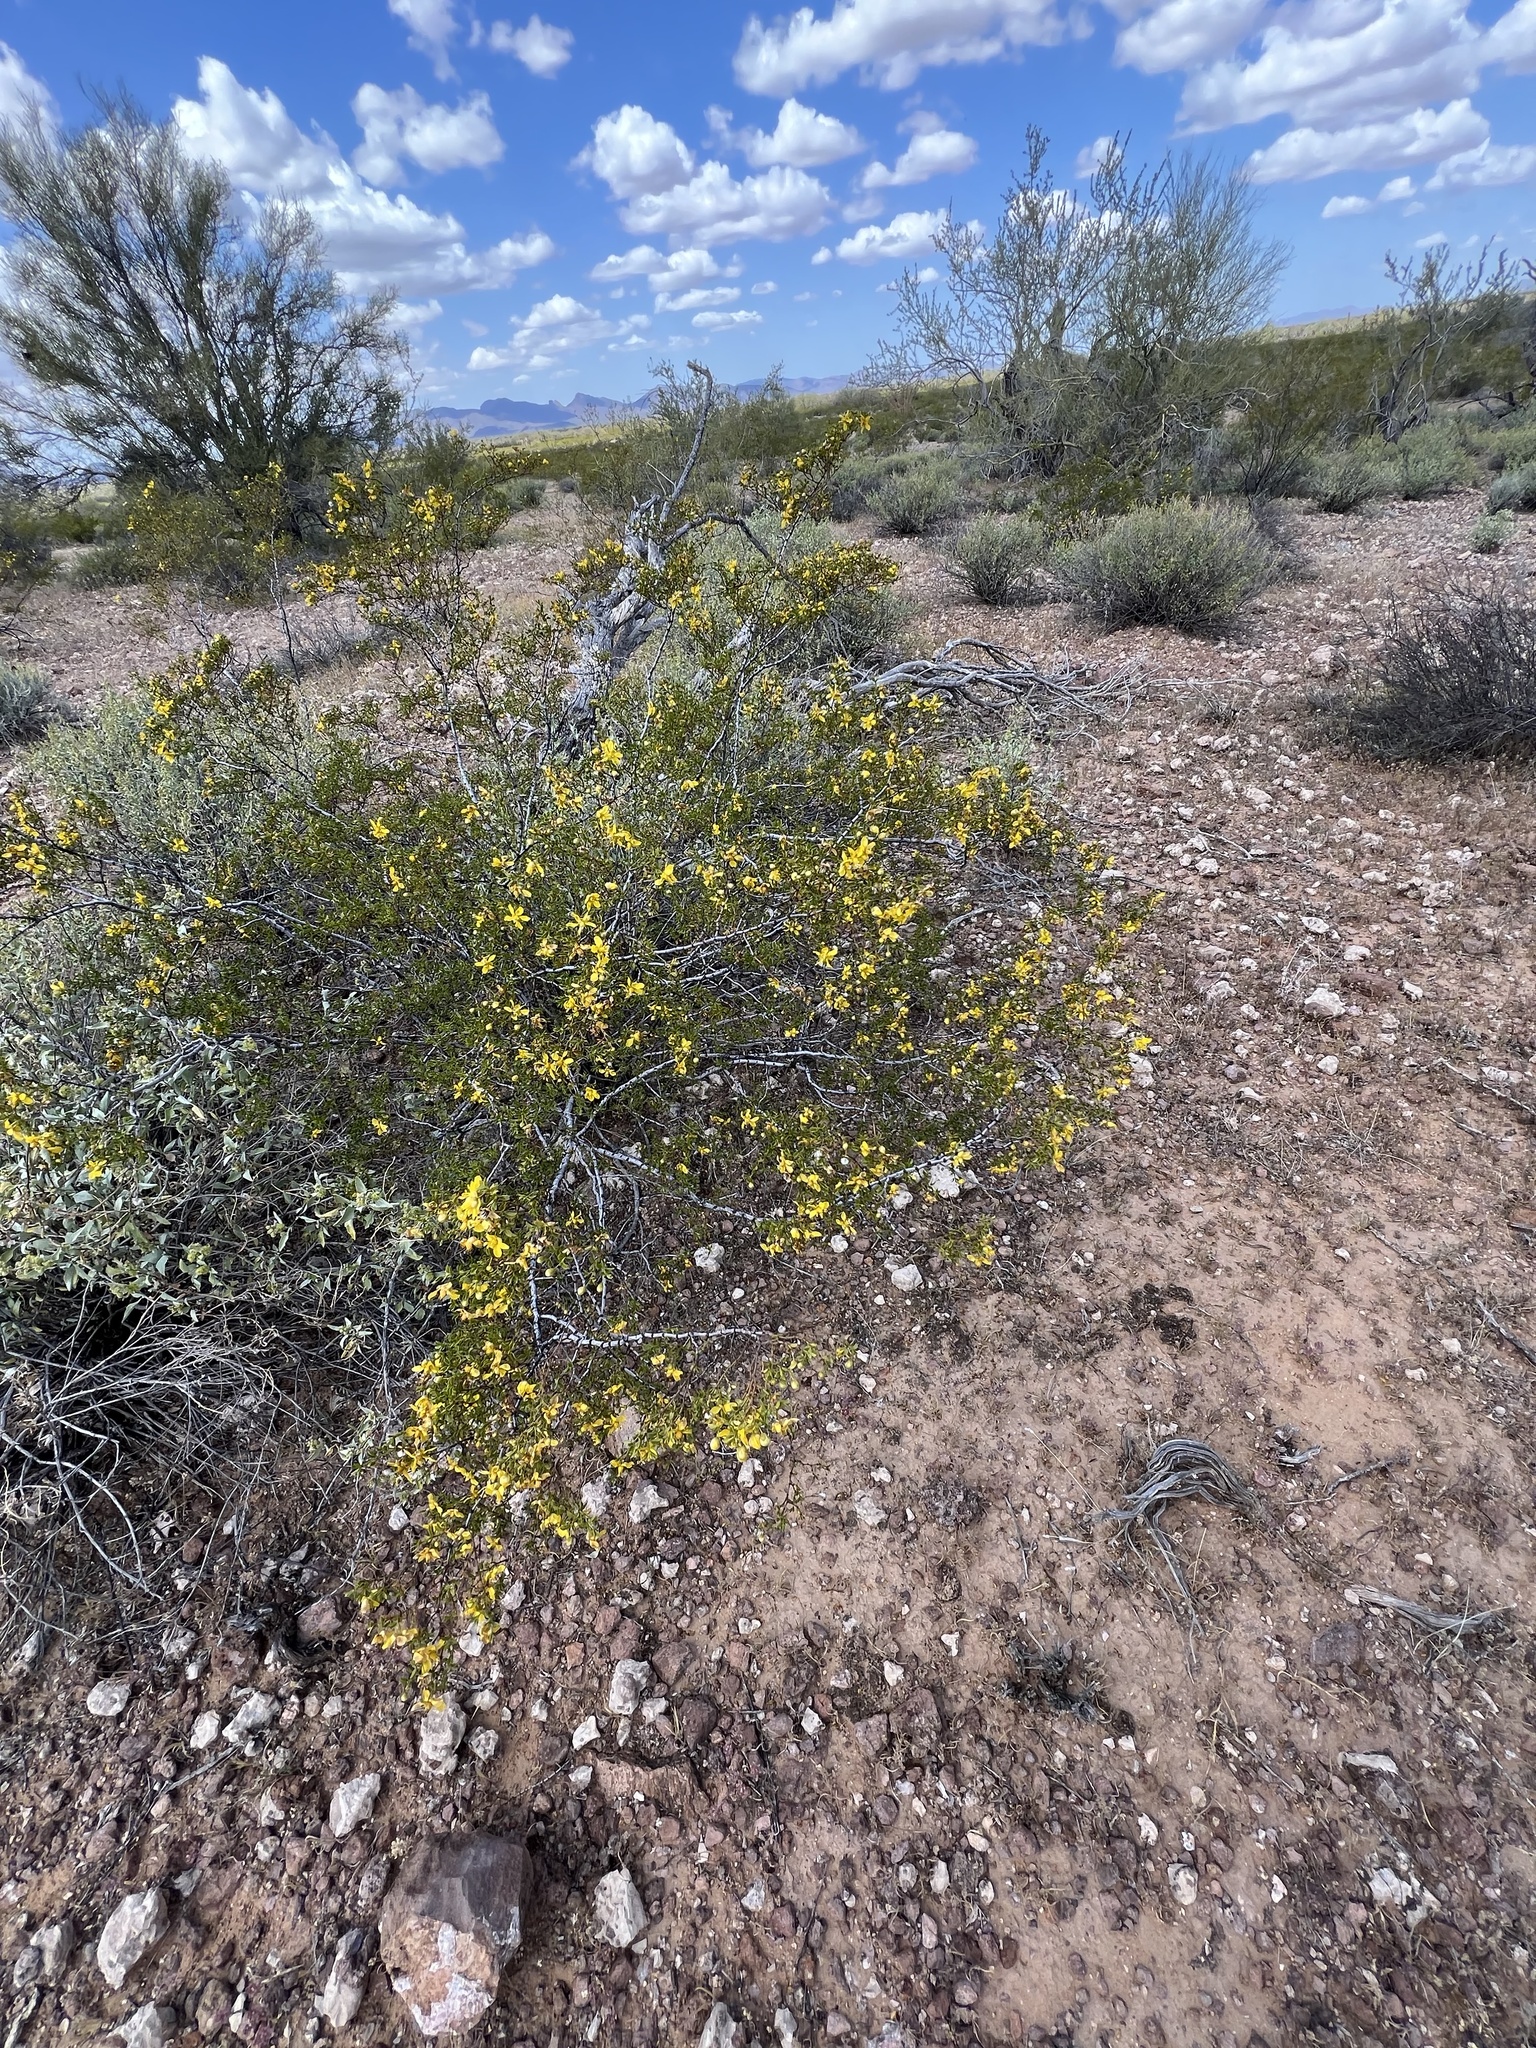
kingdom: Plantae
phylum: Tracheophyta
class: Magnoliopsida
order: Zygophyllales
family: Zygophyllaceae
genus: Larrea
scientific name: Larrea tridentata
